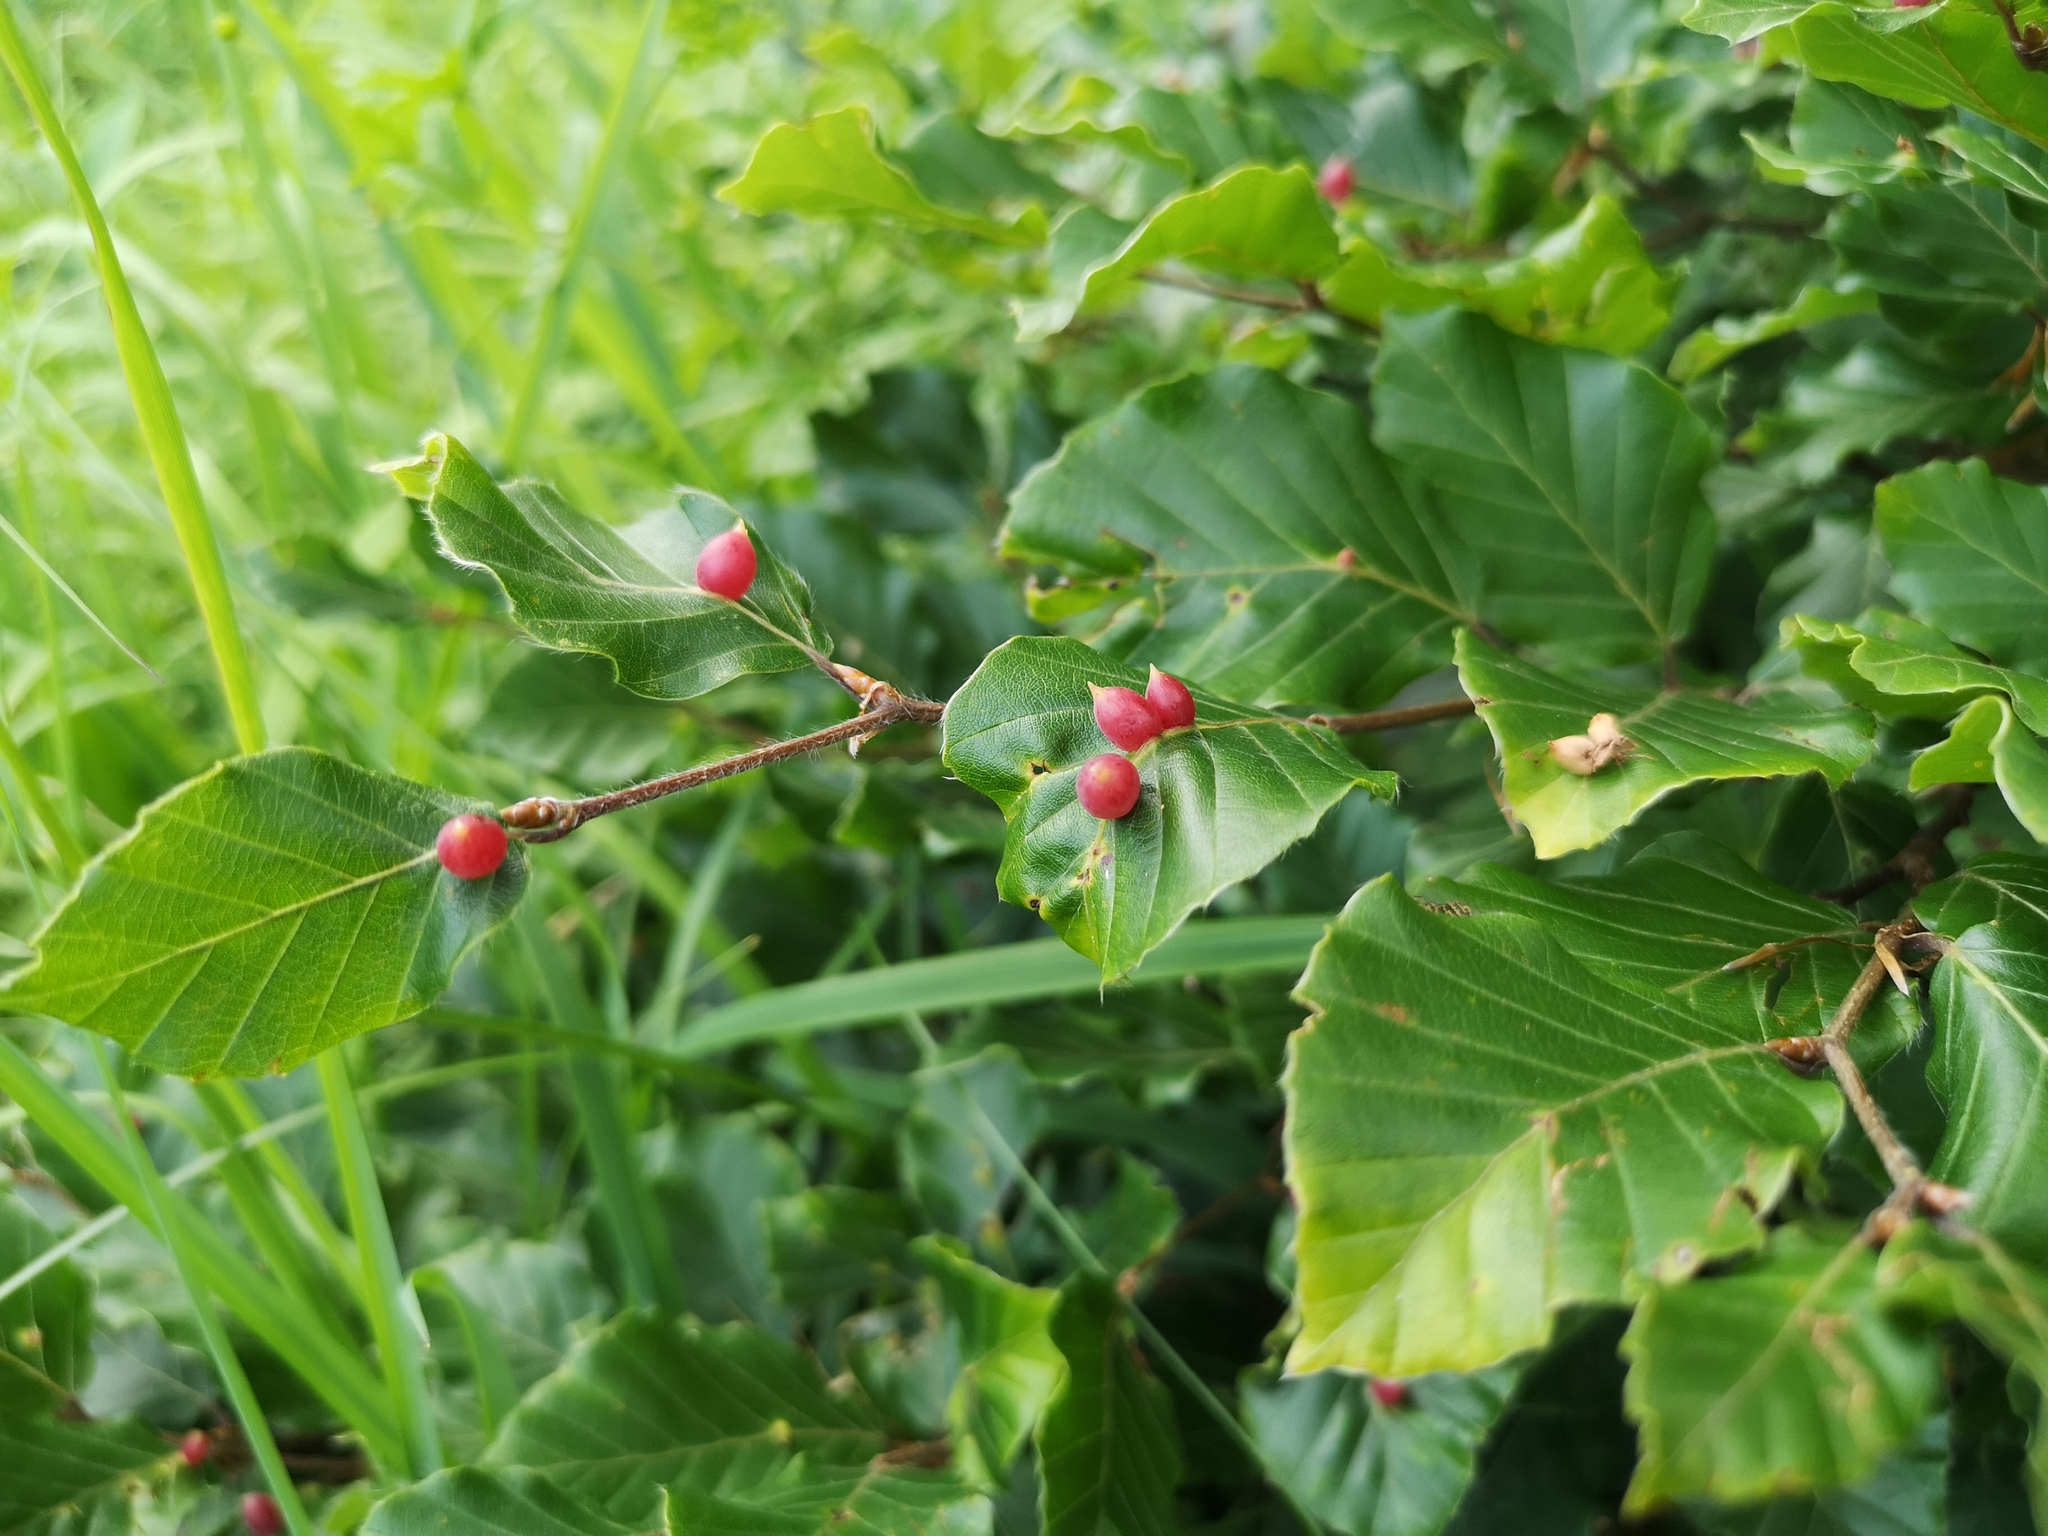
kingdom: Animalia
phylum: Arthropoda
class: Insecta
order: Diptera
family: Cecidomyiidae
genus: Mikiola
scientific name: Mikiola fagi
